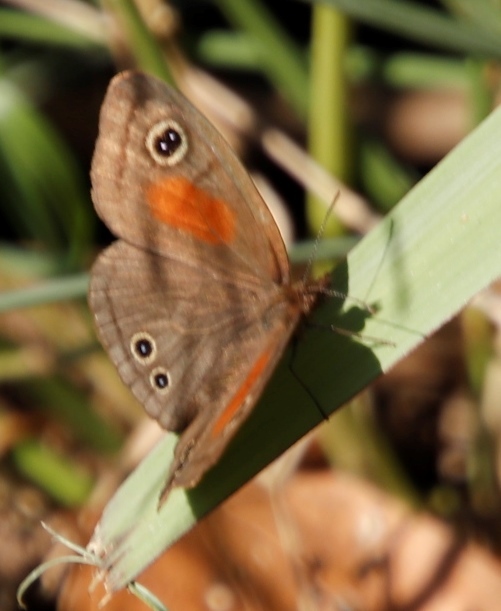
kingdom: Animalia
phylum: Arthropoda
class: Insecta
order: Lepidoptera
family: Nymphalidae
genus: Cassionympha
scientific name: Cassionympha cassius
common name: Rainforest brown
